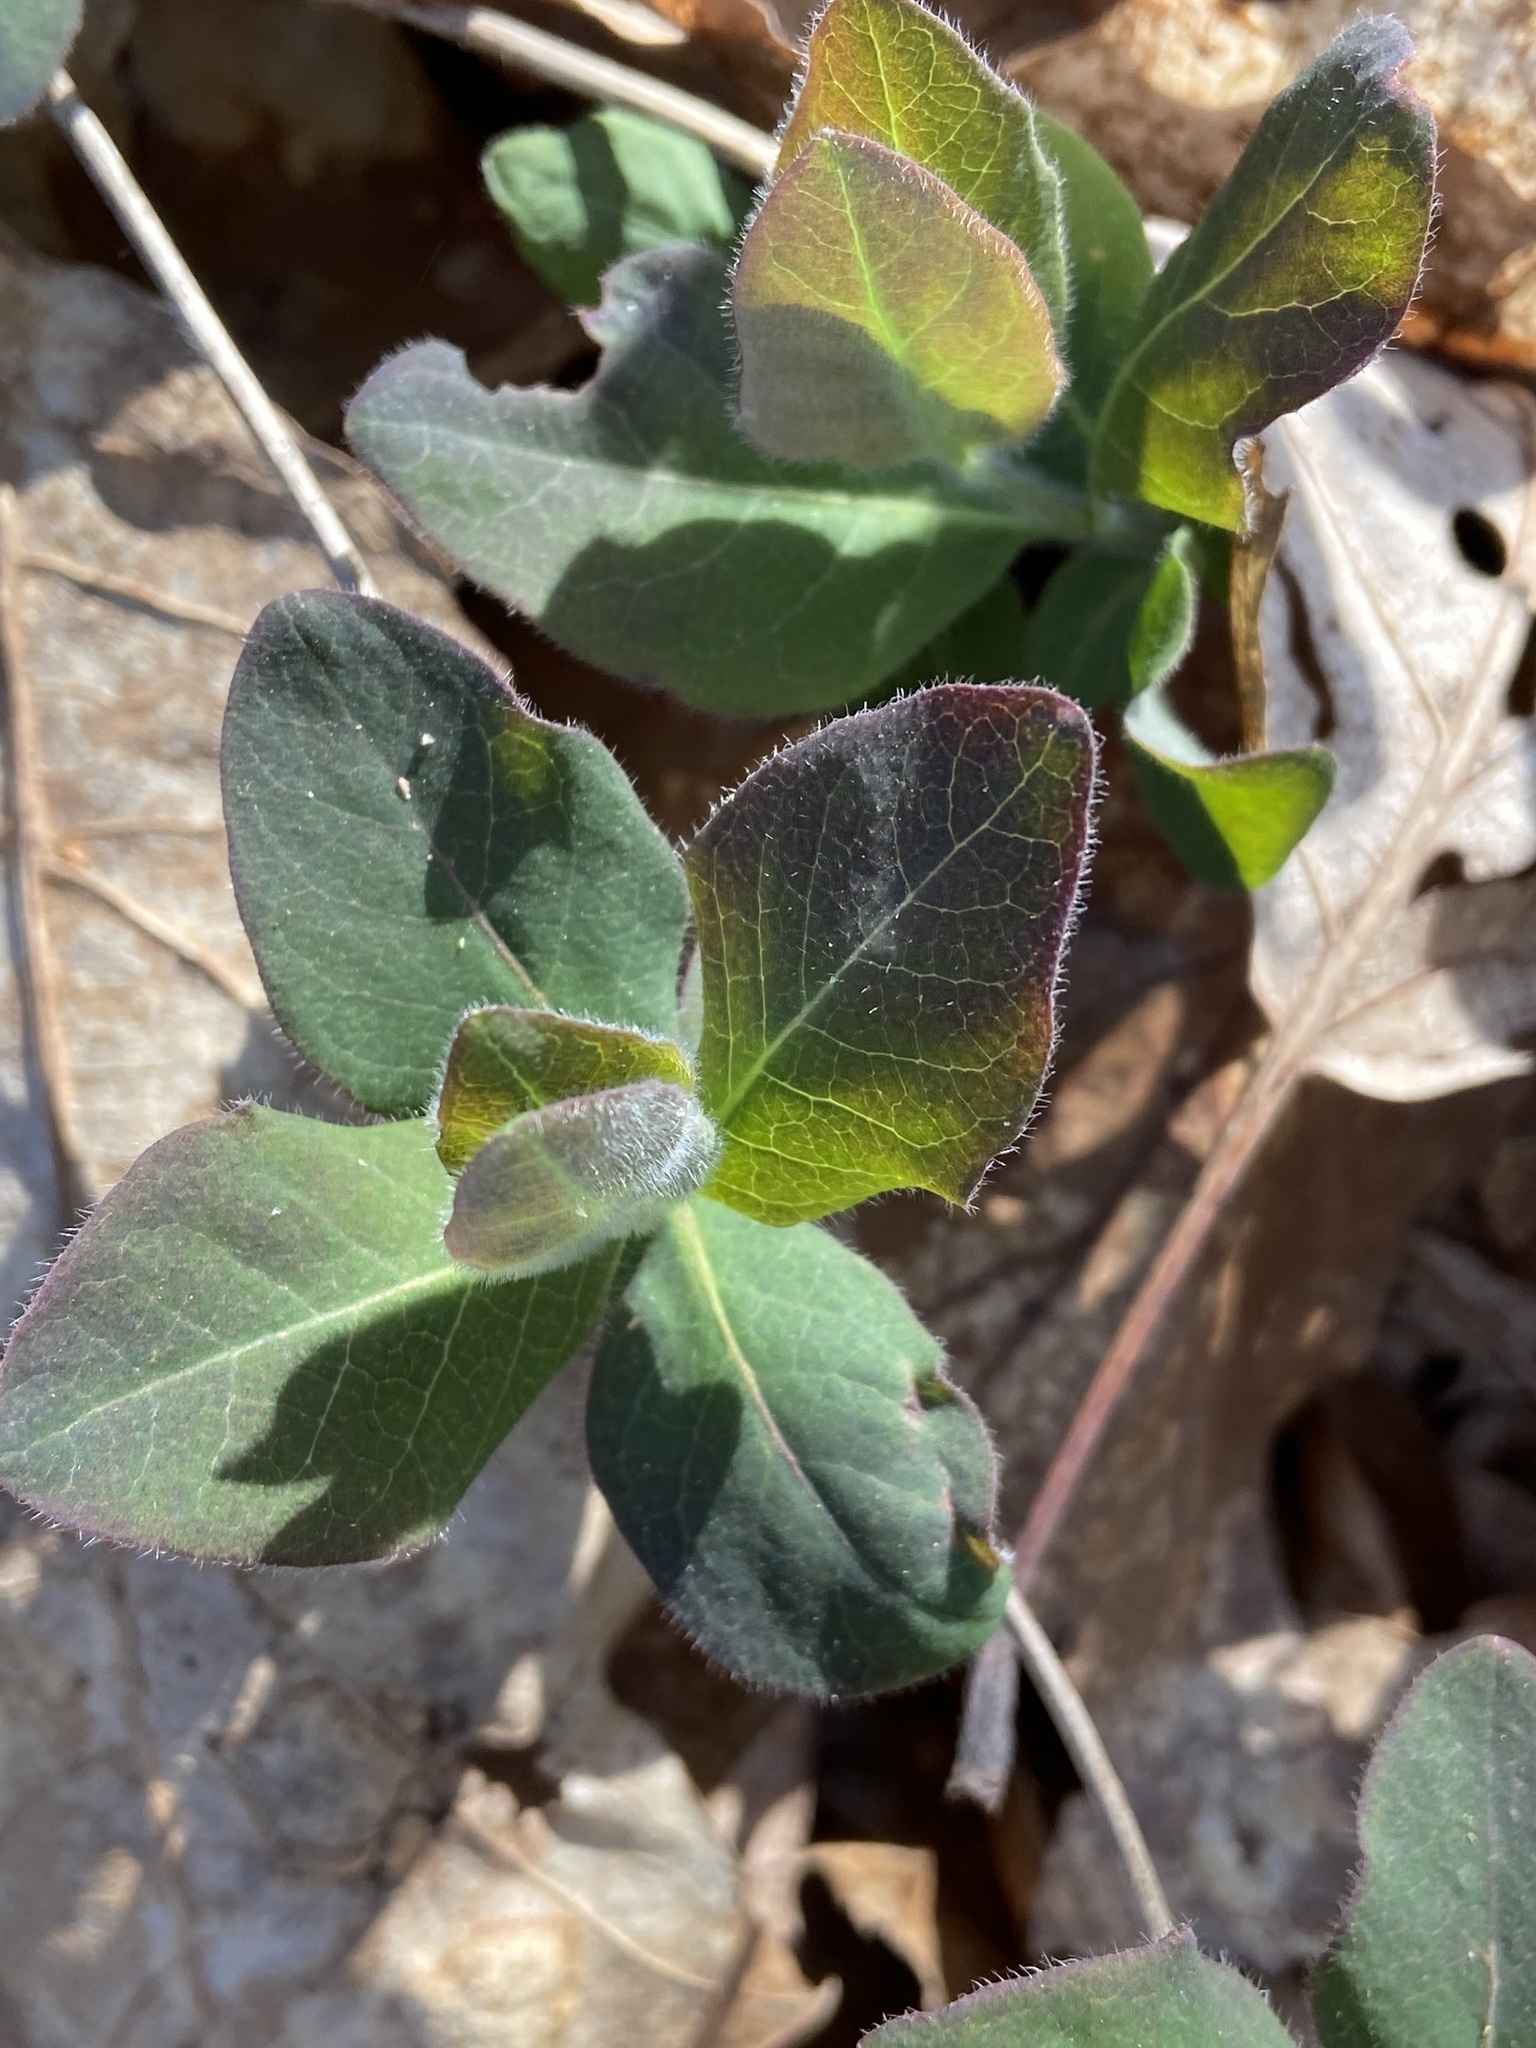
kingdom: Plantae
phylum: Tracheophyta
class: Magnoliopsida
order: Dipsacales
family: Caprifoliaceae
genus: Lonicera
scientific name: Lonicera periclymenum
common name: European honeysuckle
